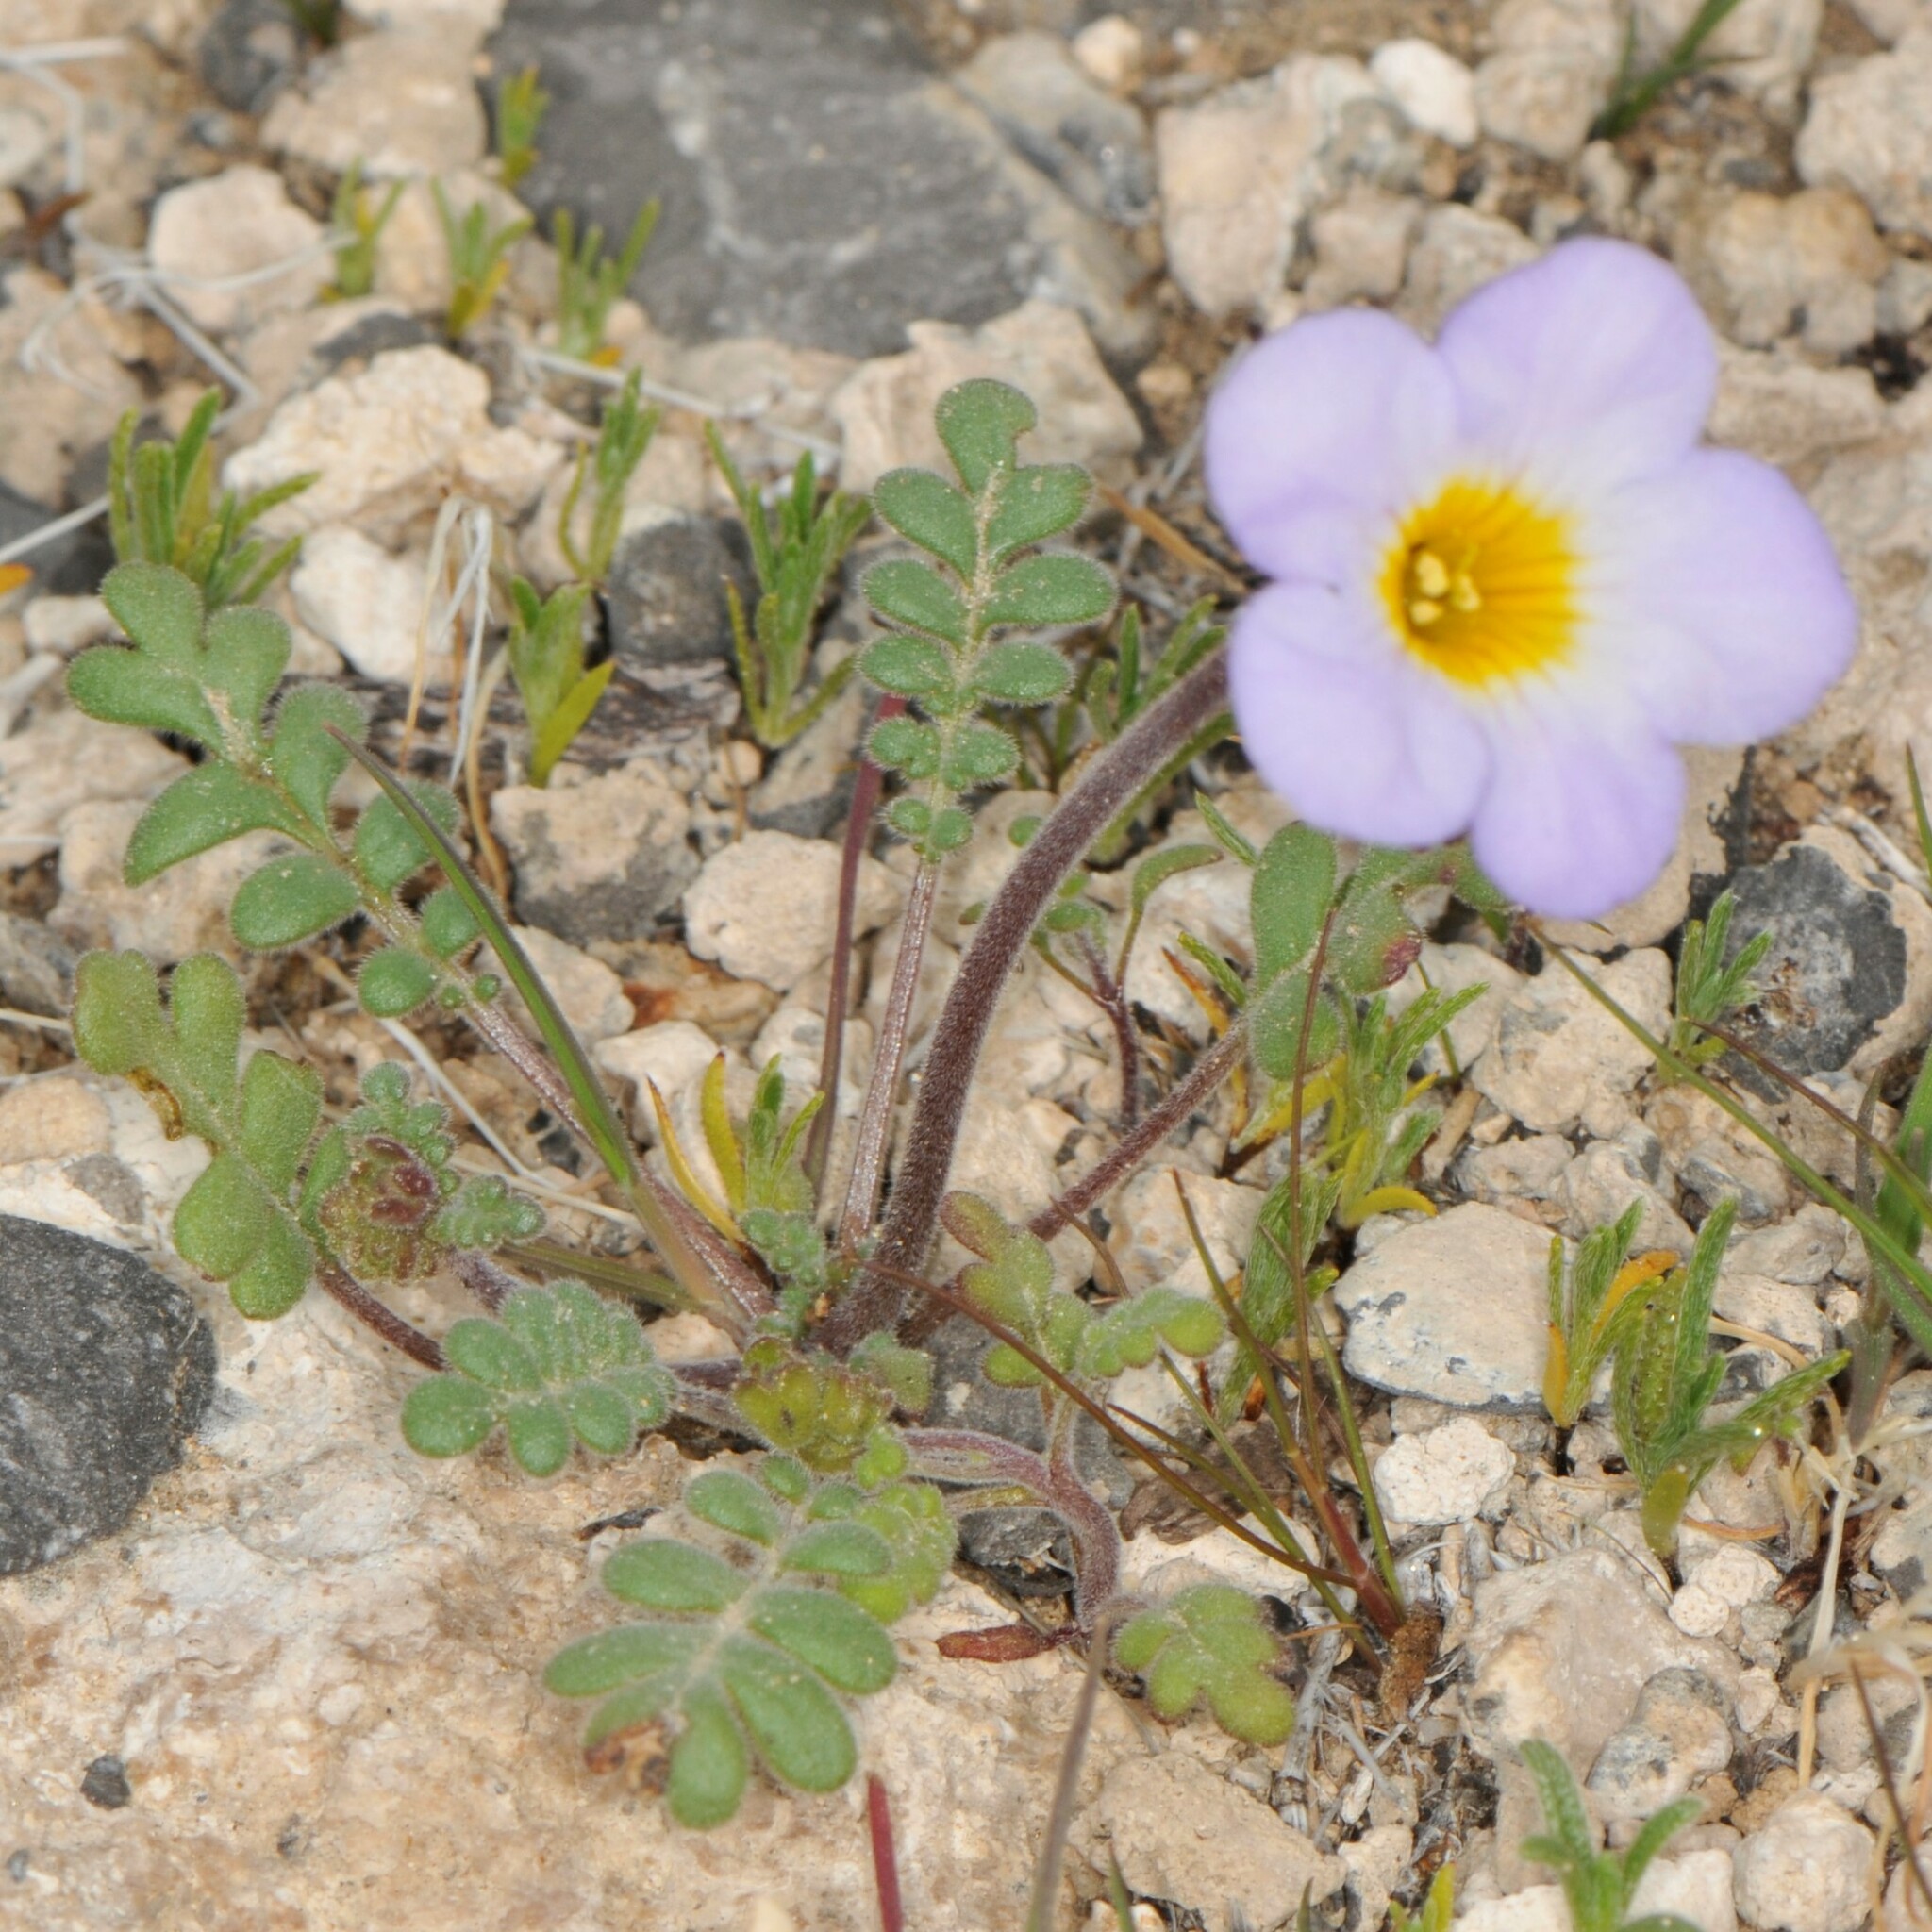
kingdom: Plantae
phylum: Tracheophyta
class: Magnoliopsida
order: Boraginales
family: Hydrophyllaceae
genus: Phacelia
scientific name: Phacelia fremontii
